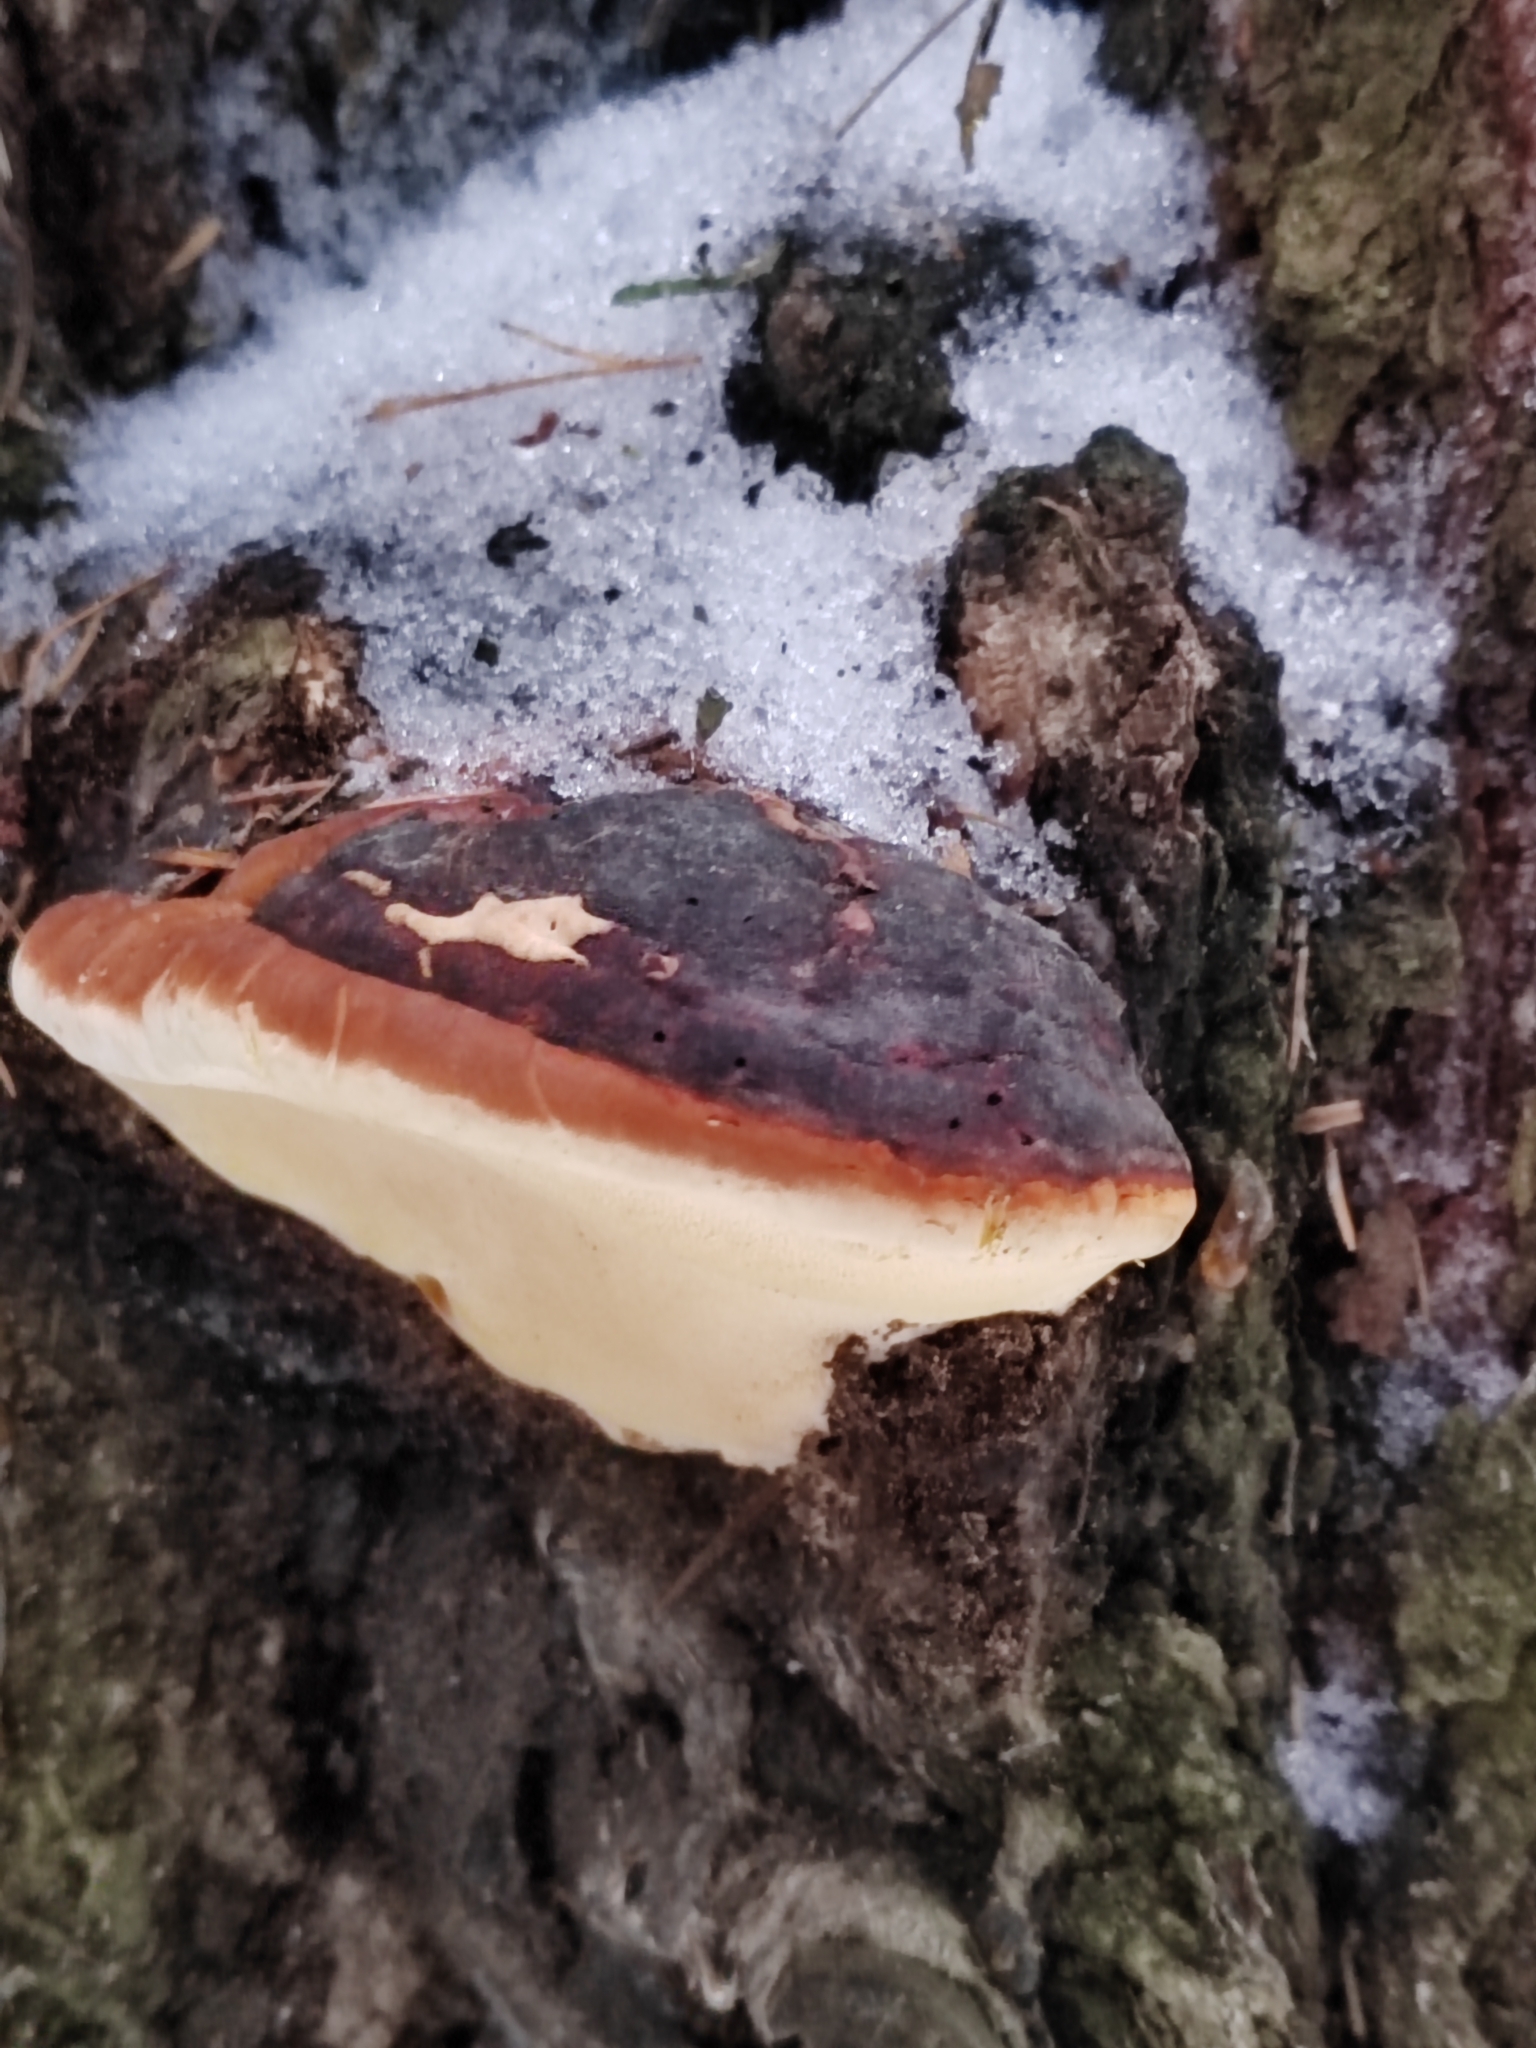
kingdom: Fungi
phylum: Basidiomycota
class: Agaricomycetes
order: Polyporales
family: Fomitopsidaceae
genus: Fomitopsis
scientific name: Fomitopsis pinicola
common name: Red-belted bracket
